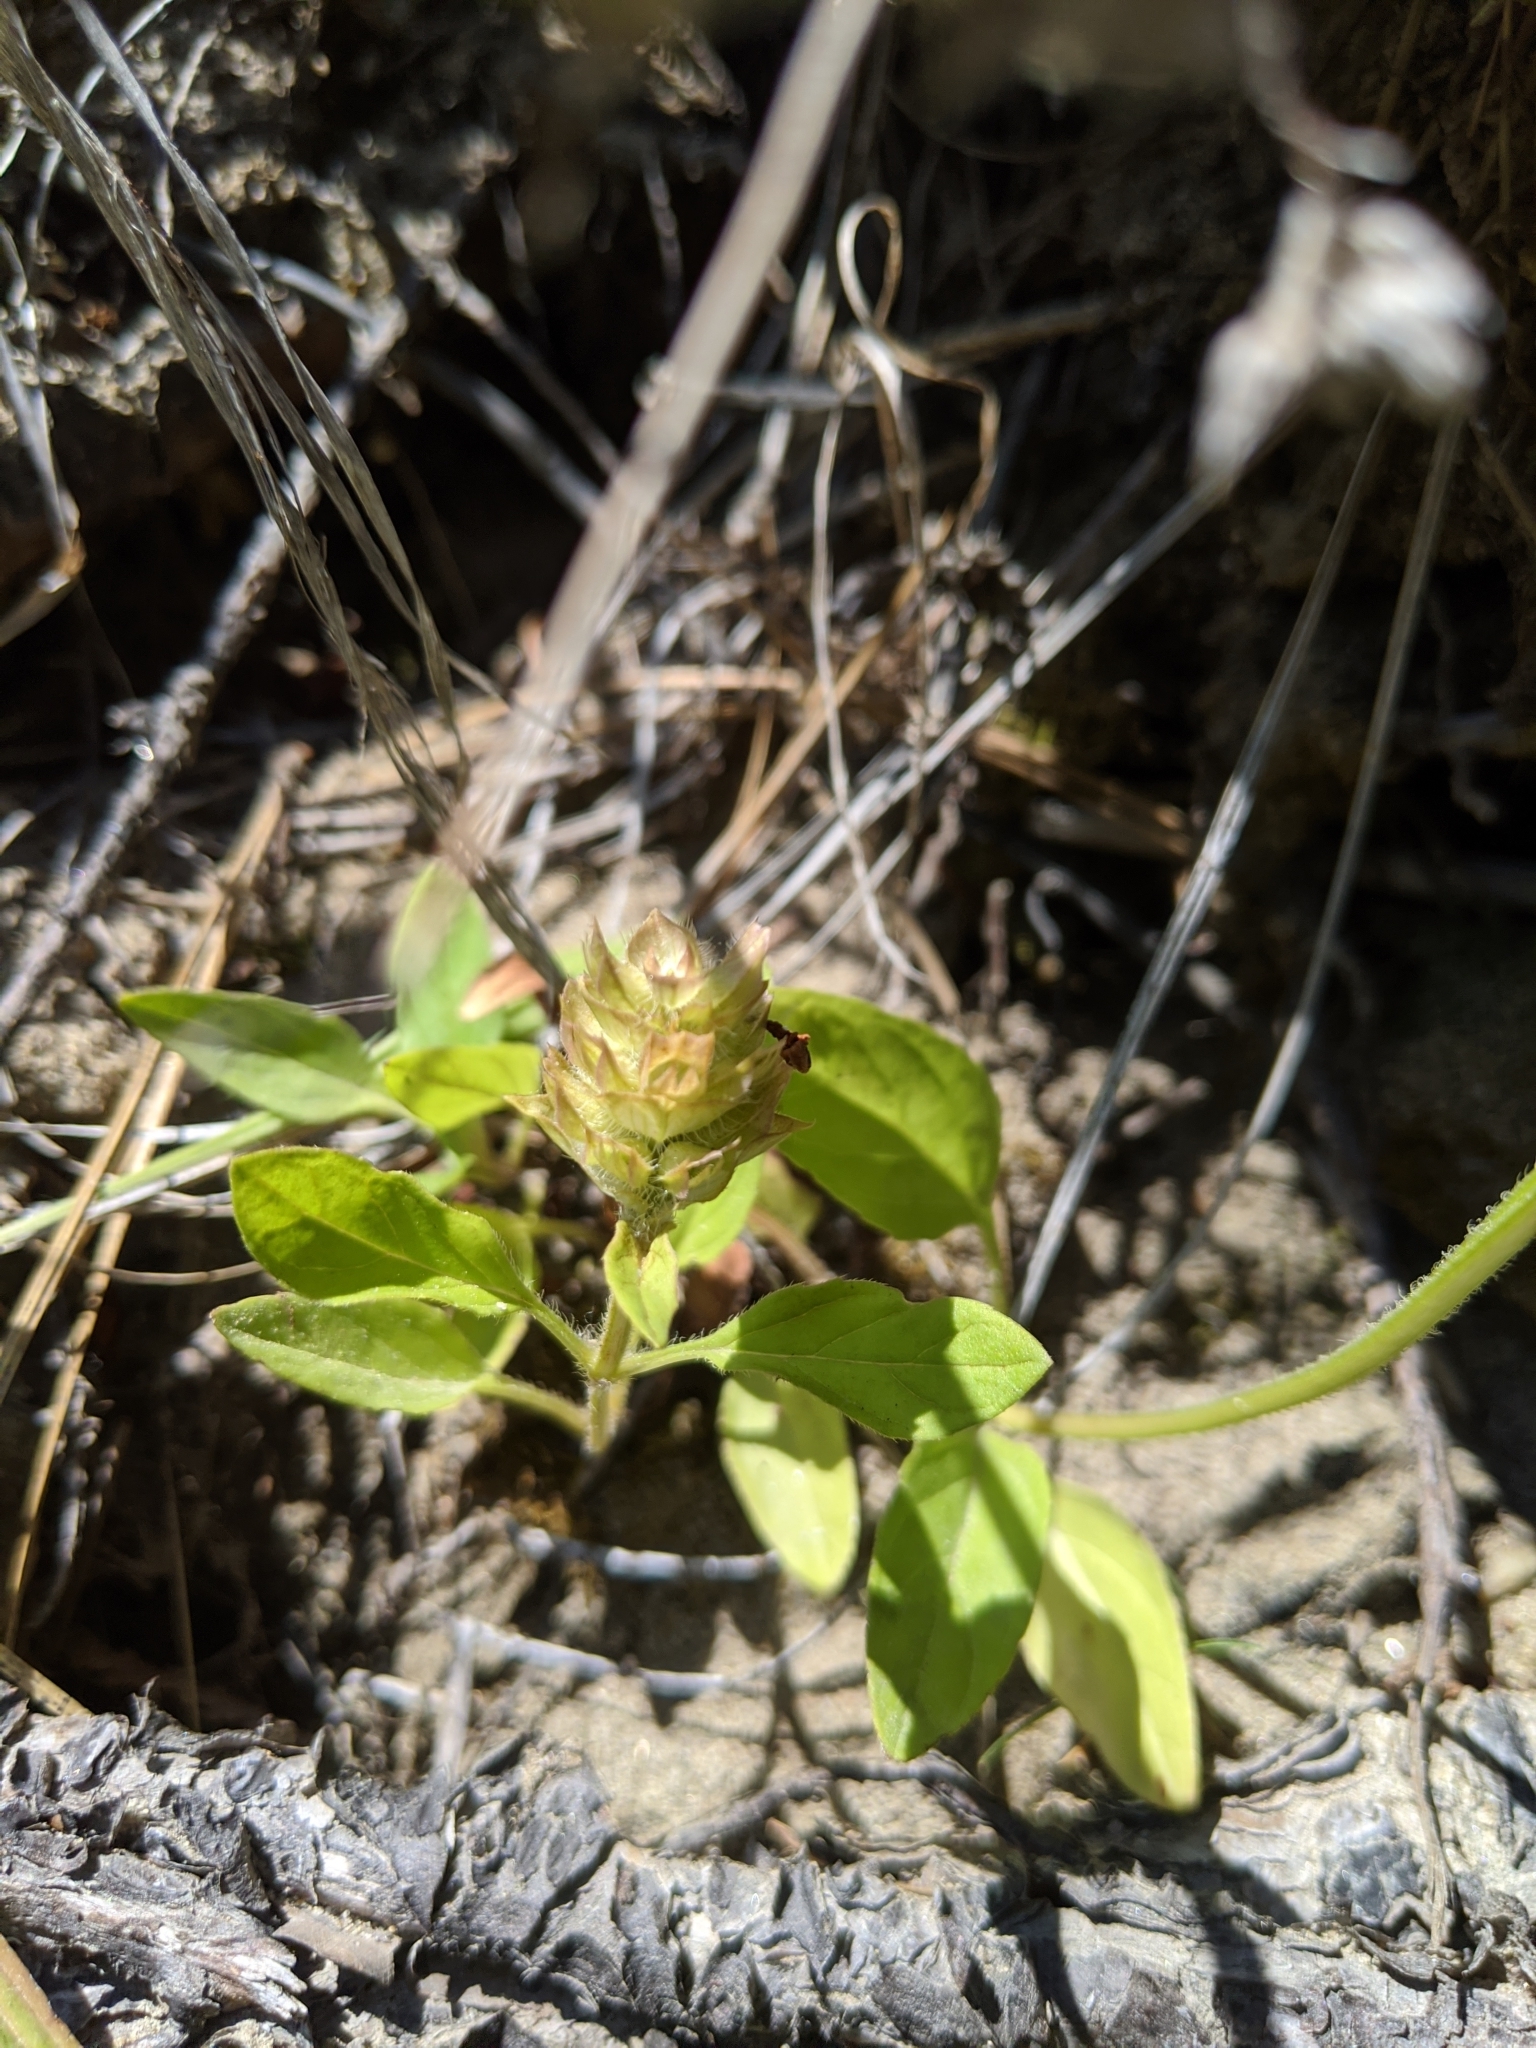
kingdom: Plantae
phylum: Tracheophyta
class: Magnoliopsida
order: Lamiales
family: Lamiaceae
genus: Prunella
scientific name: Prunella vulgaris
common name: Heal-all
